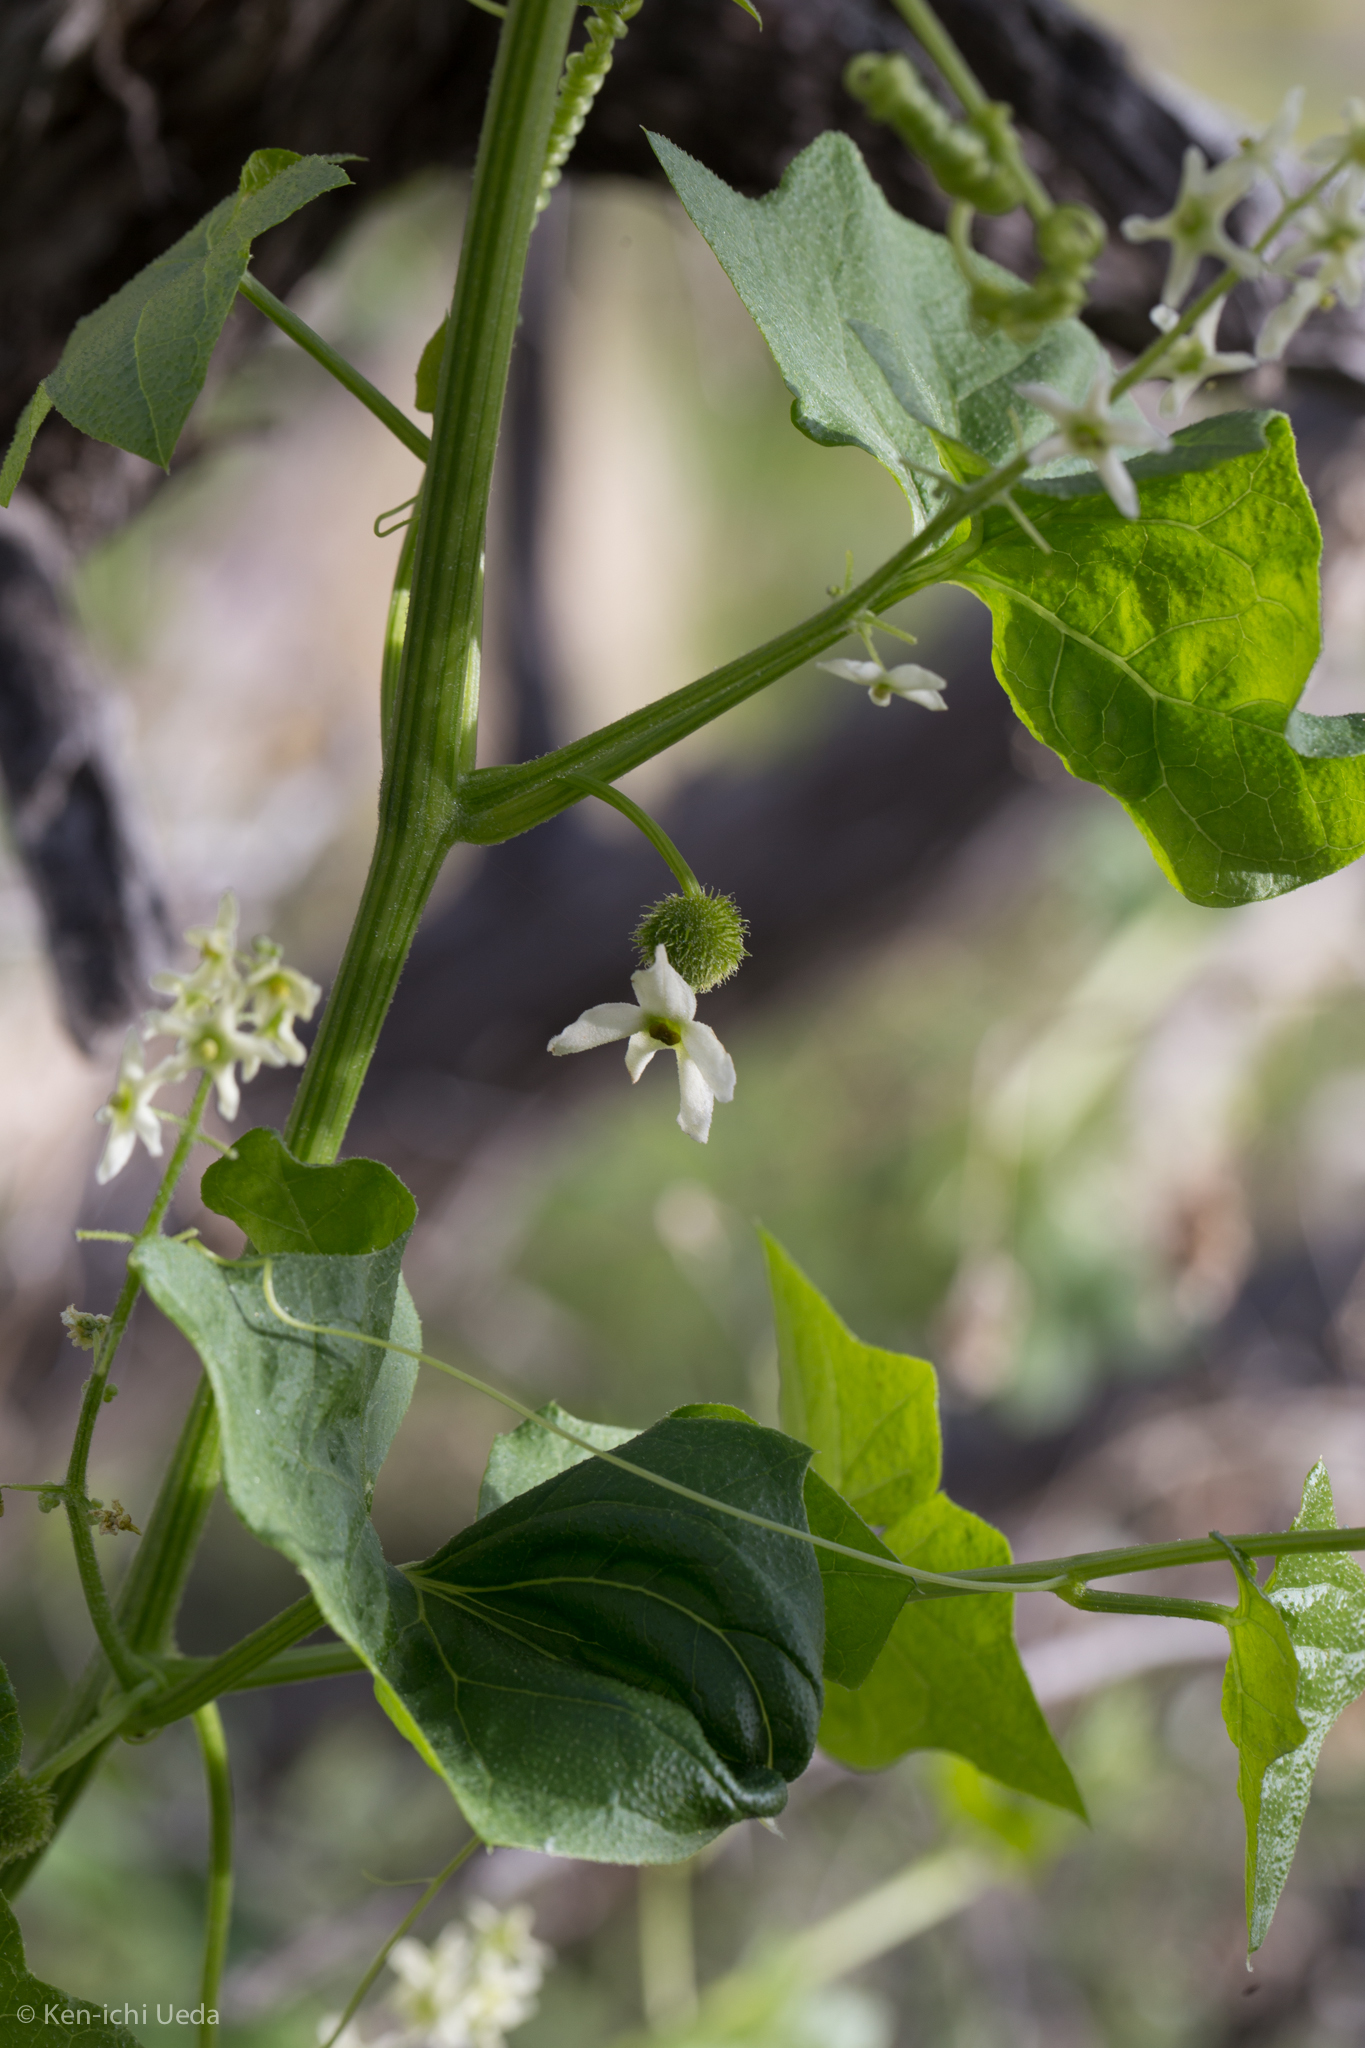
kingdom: Plantae
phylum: Tracheophyta
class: Magnoliopsida
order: Cucurbitales
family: Cucurbitaceae
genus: Marah
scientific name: Marah fabacea
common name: California manroot
